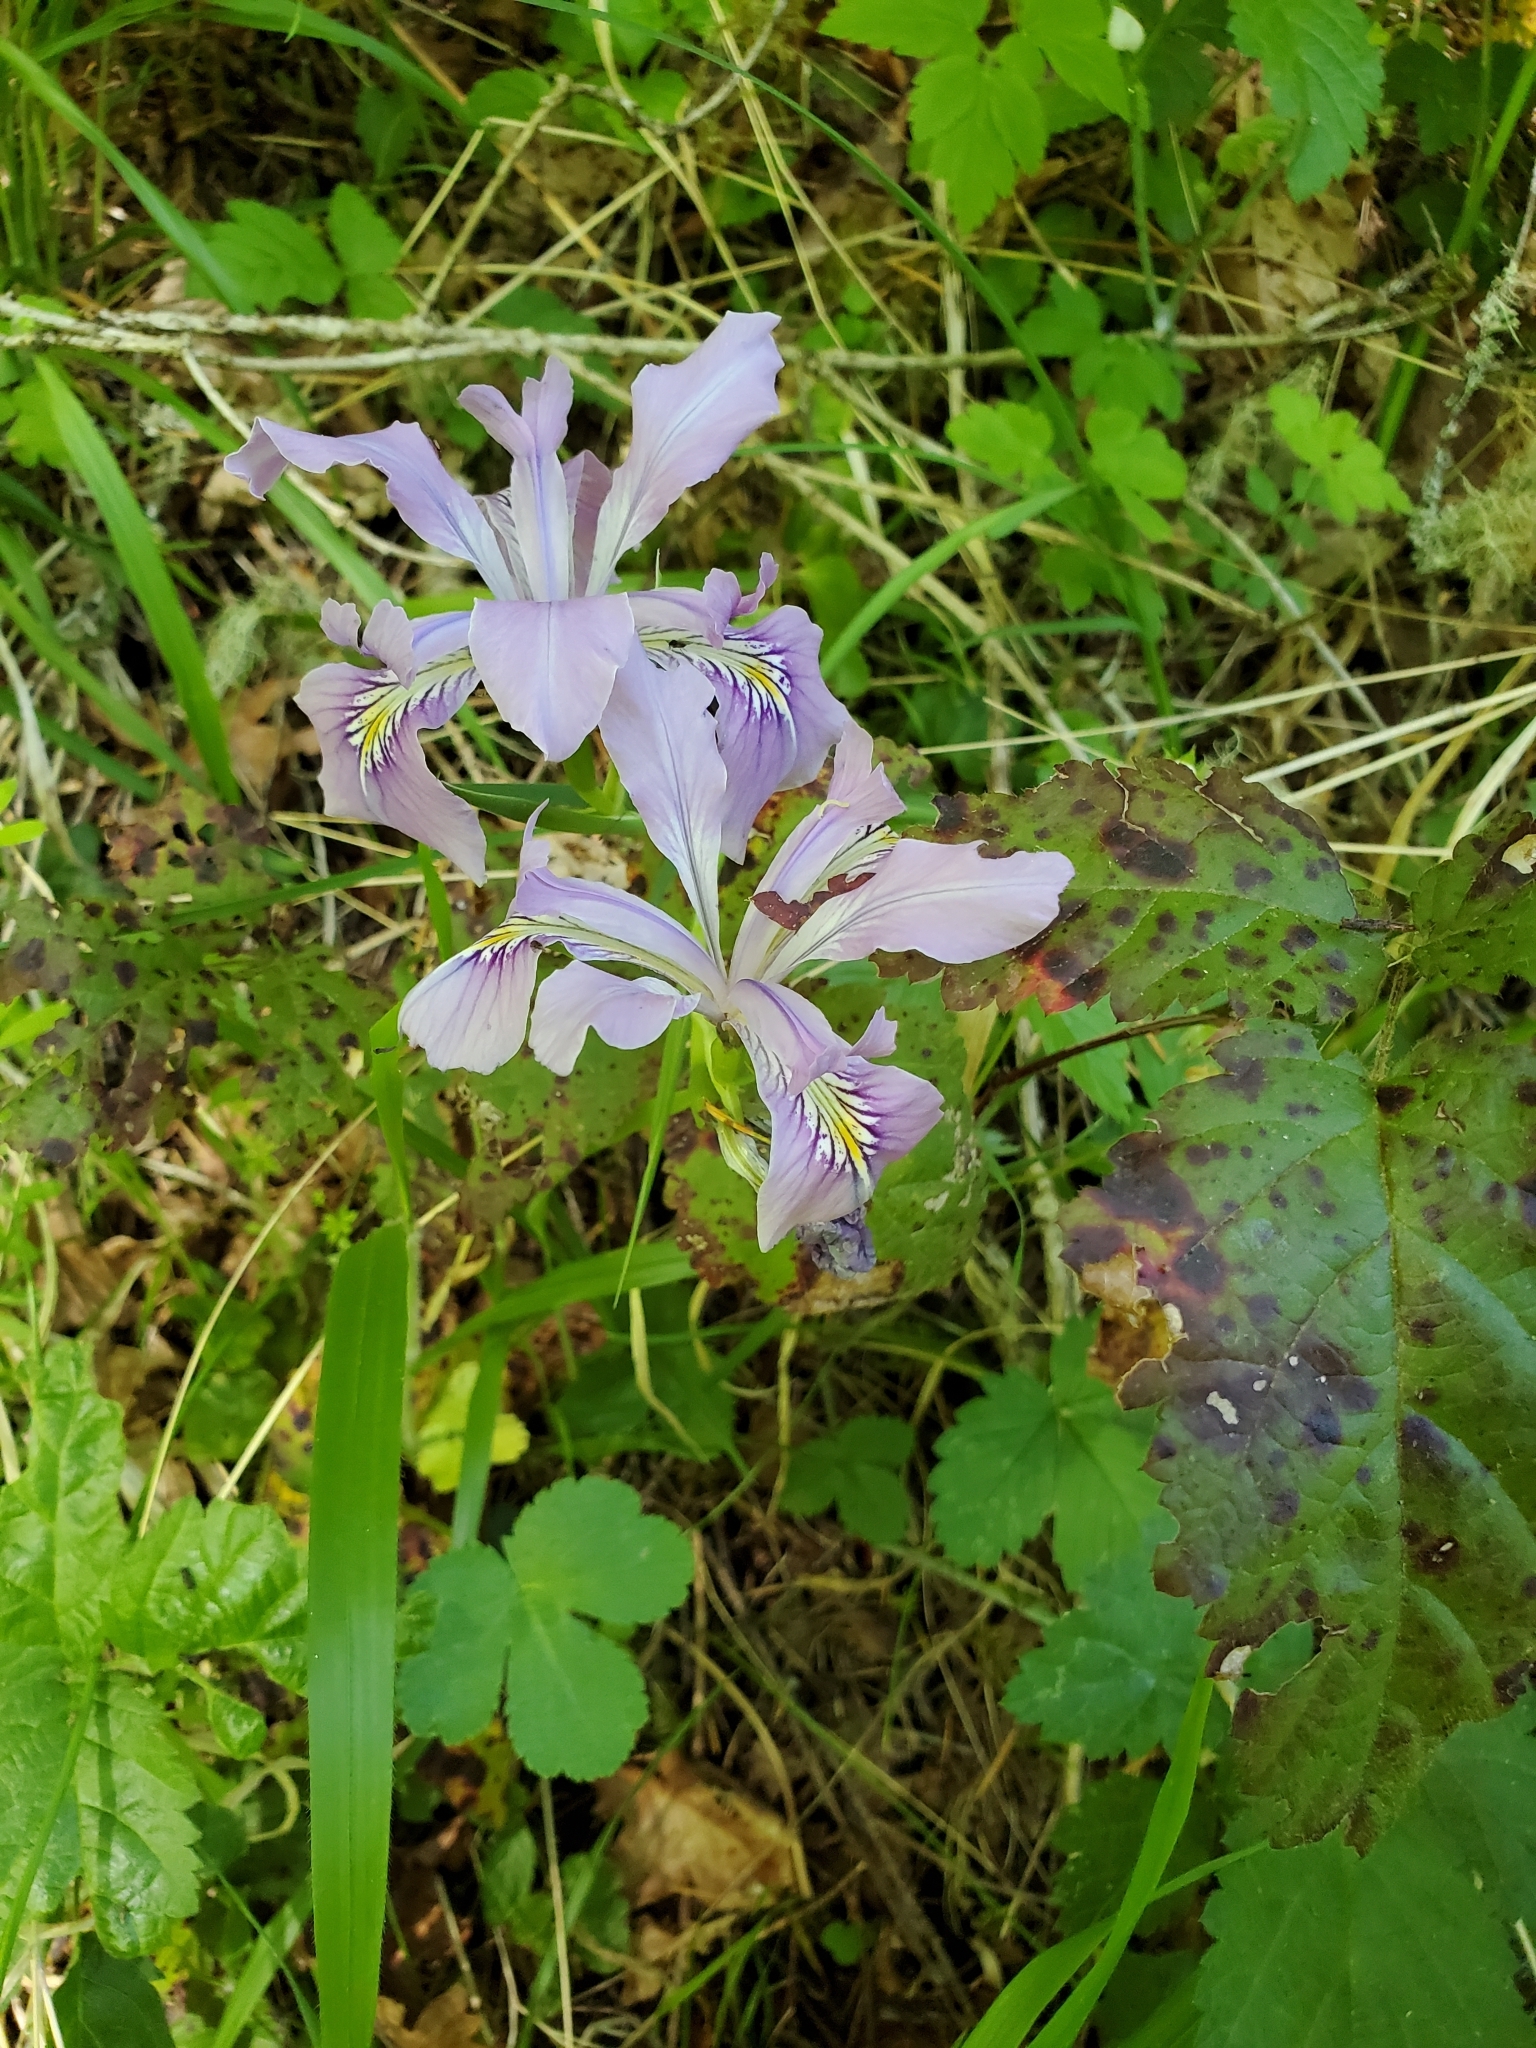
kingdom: Plantae
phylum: Tracheophyta
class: Liliopsida
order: Asparagales
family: Iridaceae
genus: Iris
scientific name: Iris tenax
